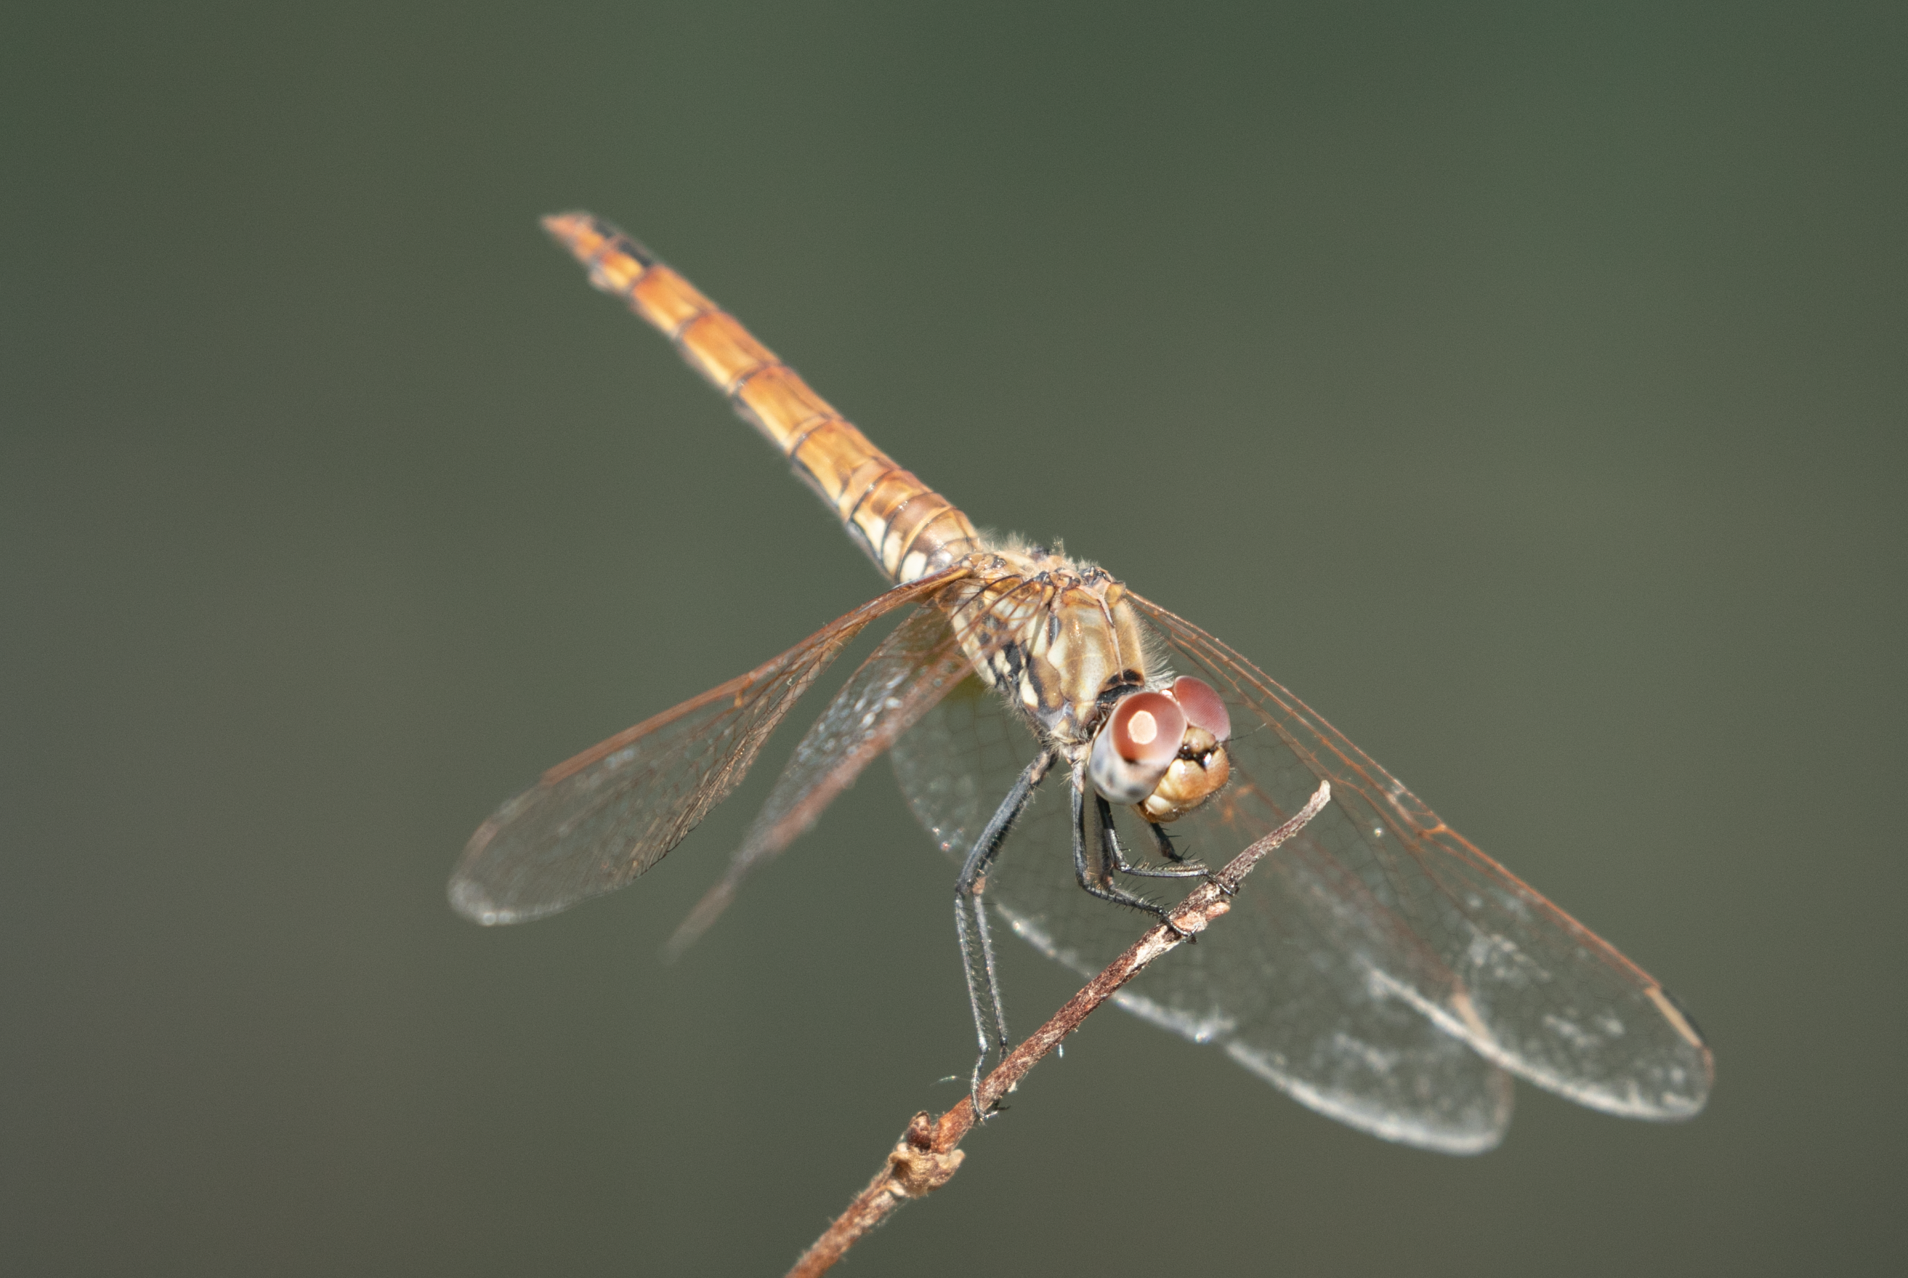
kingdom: Animalia
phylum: Arthropoda
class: Insecta
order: Odonata
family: Libellulidae
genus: Trithemis
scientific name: Trithemis annulata
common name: Violet dropwing
